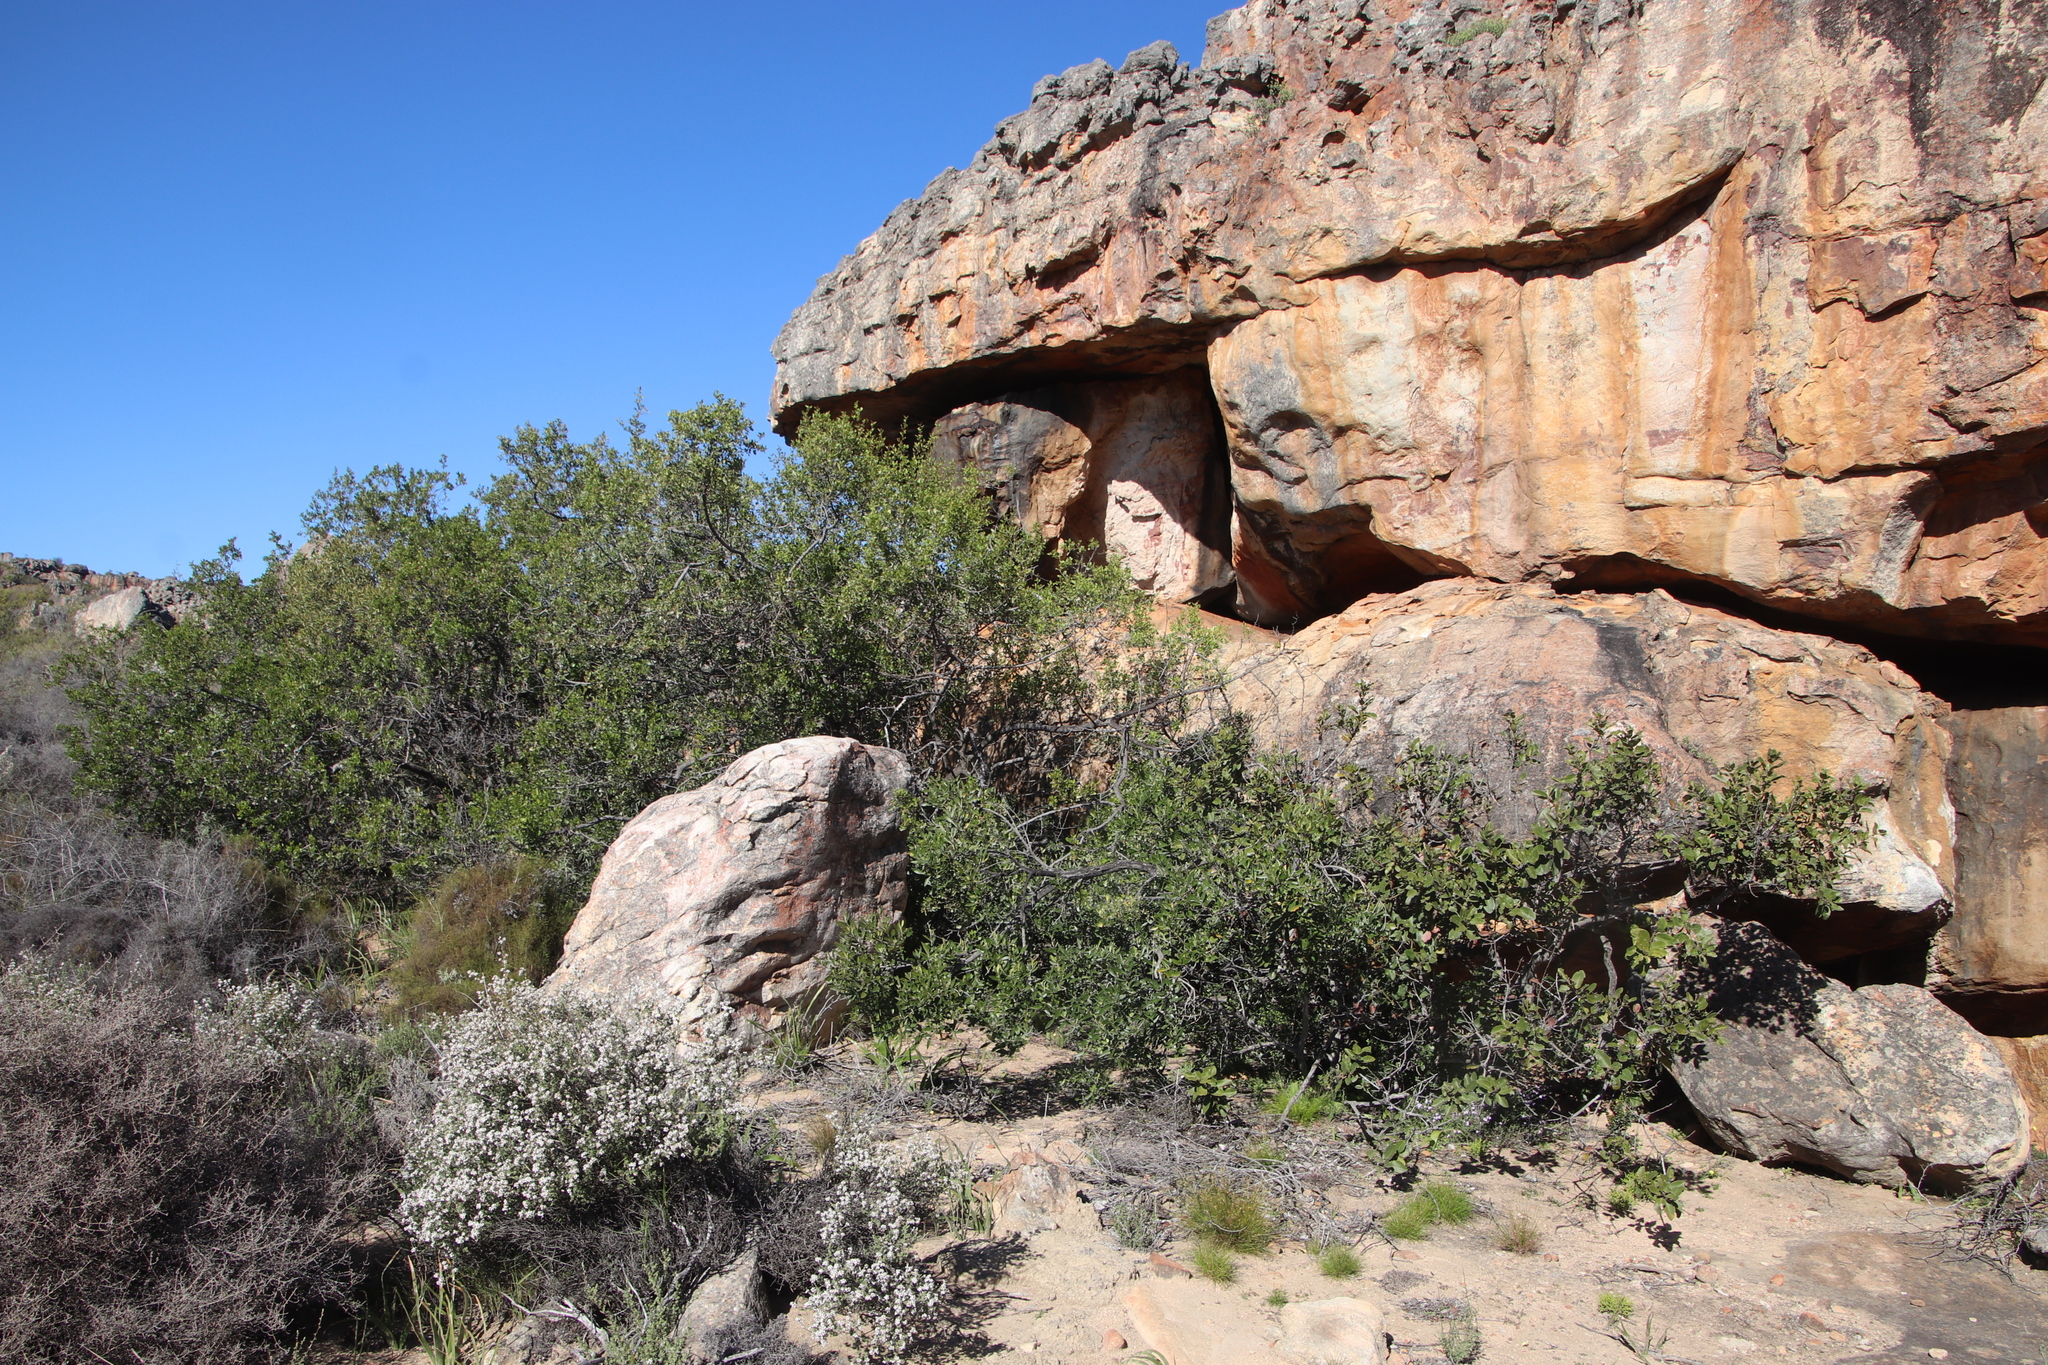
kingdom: Plantae
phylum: Tracheophyta
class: Magnoliopsida
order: Sapindales
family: Anacardiaceae
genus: Searsia
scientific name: Searsia undulata
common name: Namaqua kunibush
